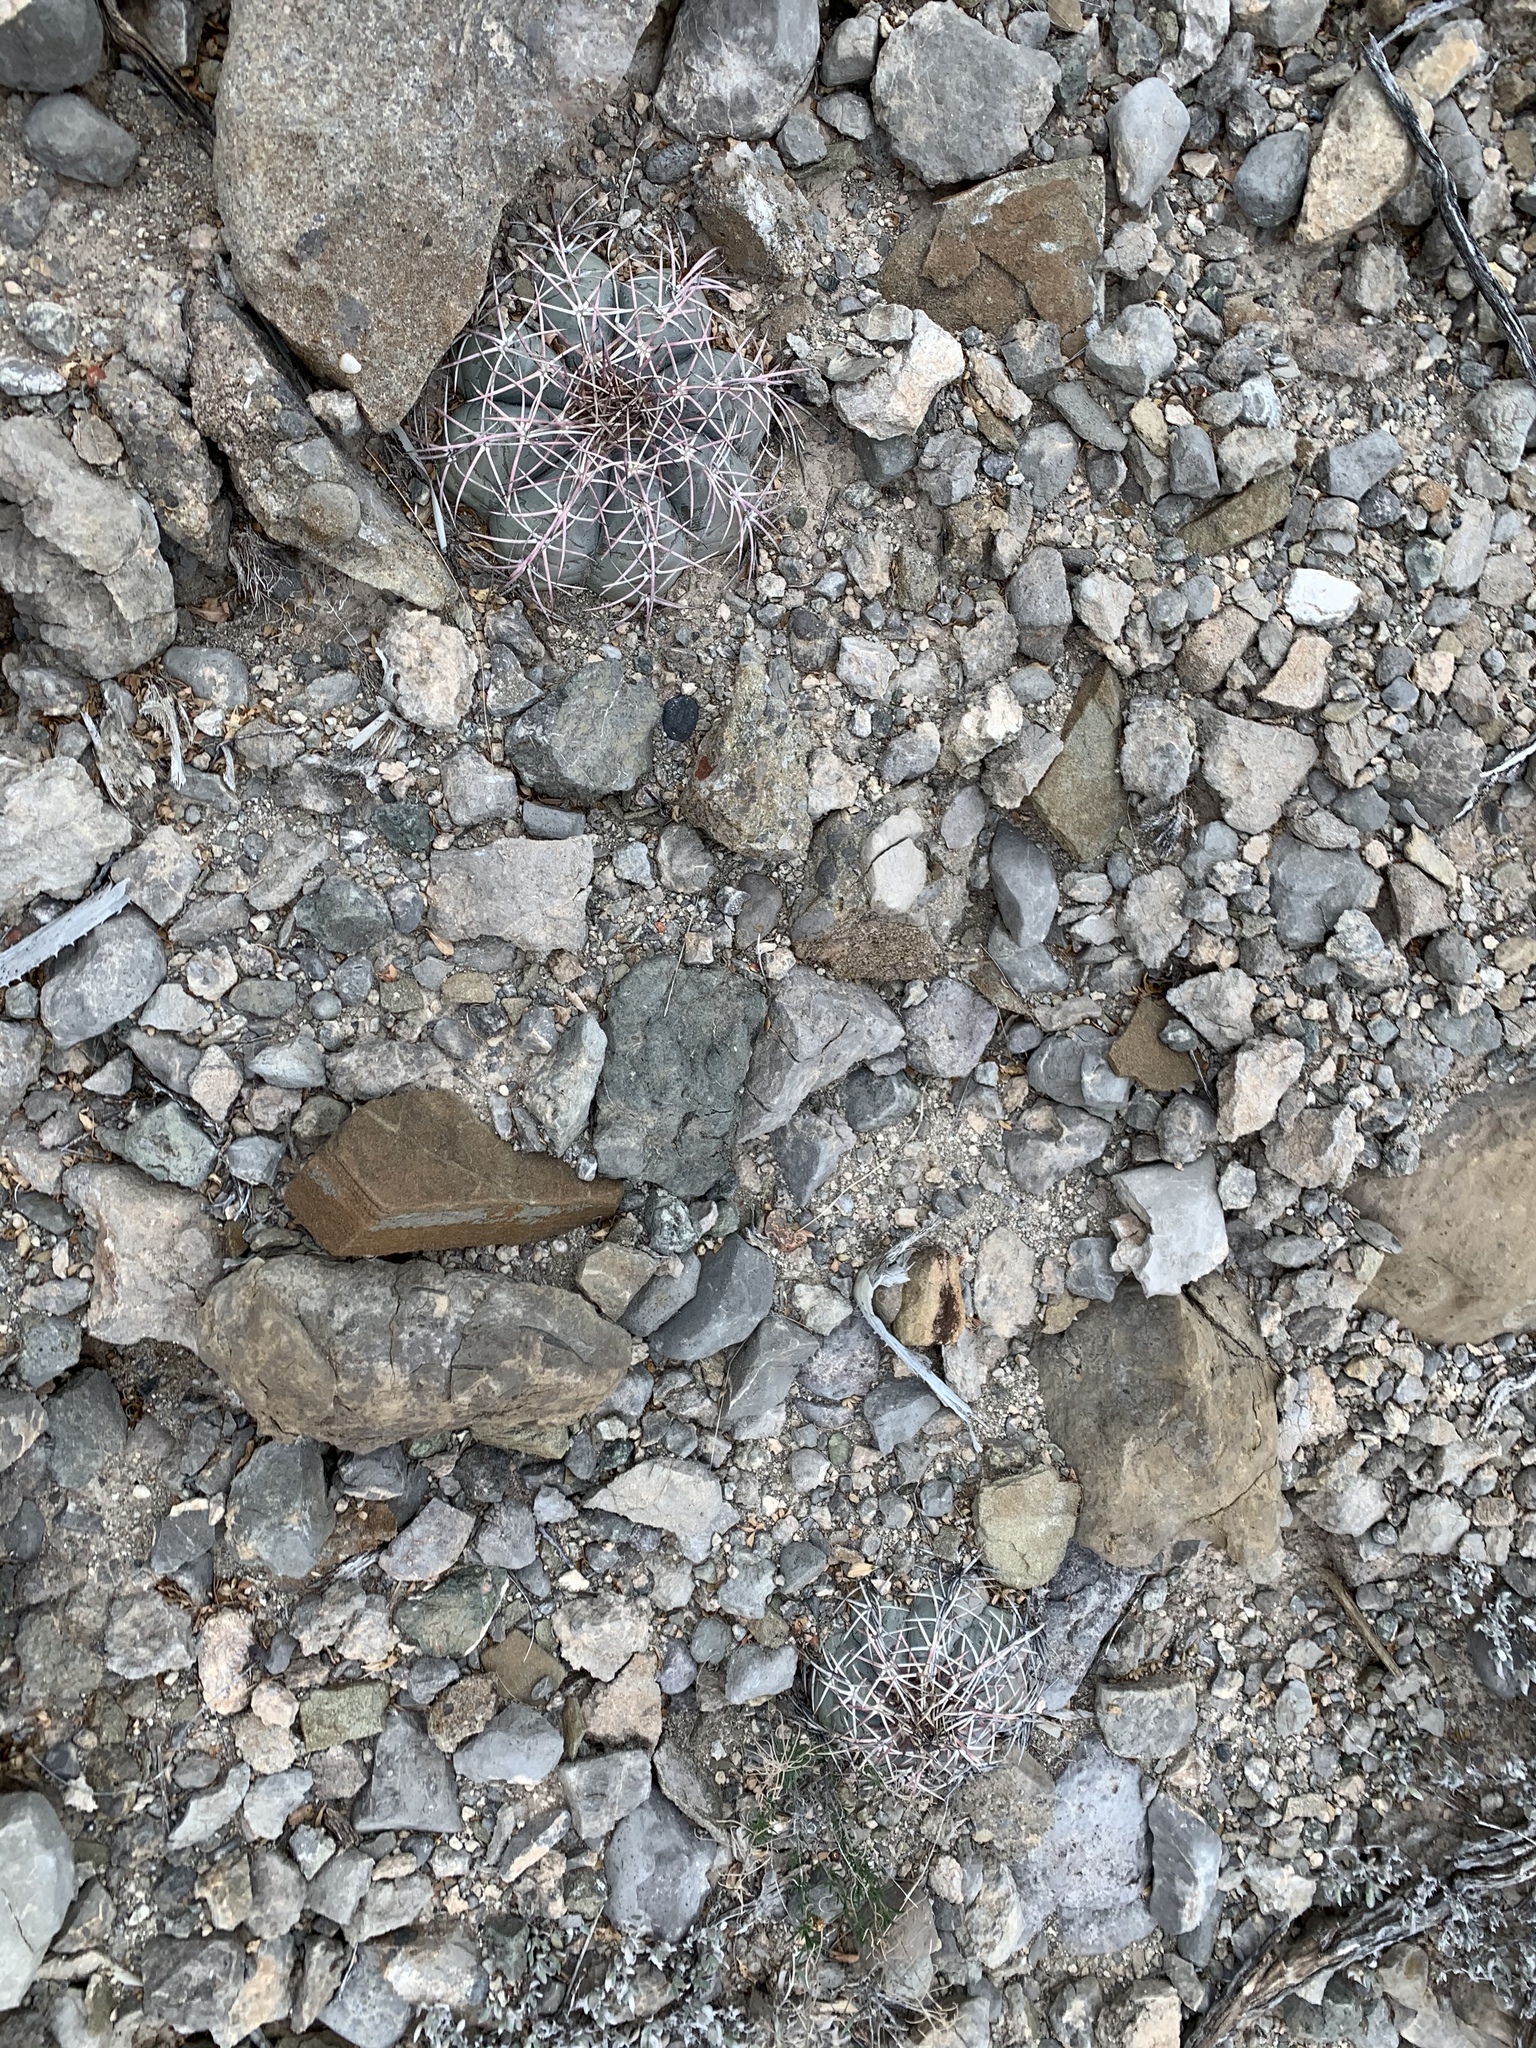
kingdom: Plantae
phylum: Tracheophyta
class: Magnoliopsida
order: Caryophyllales
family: Cactaceae
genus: Echinocactus
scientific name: Echinocactus horizonthalonius
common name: Devilshead
